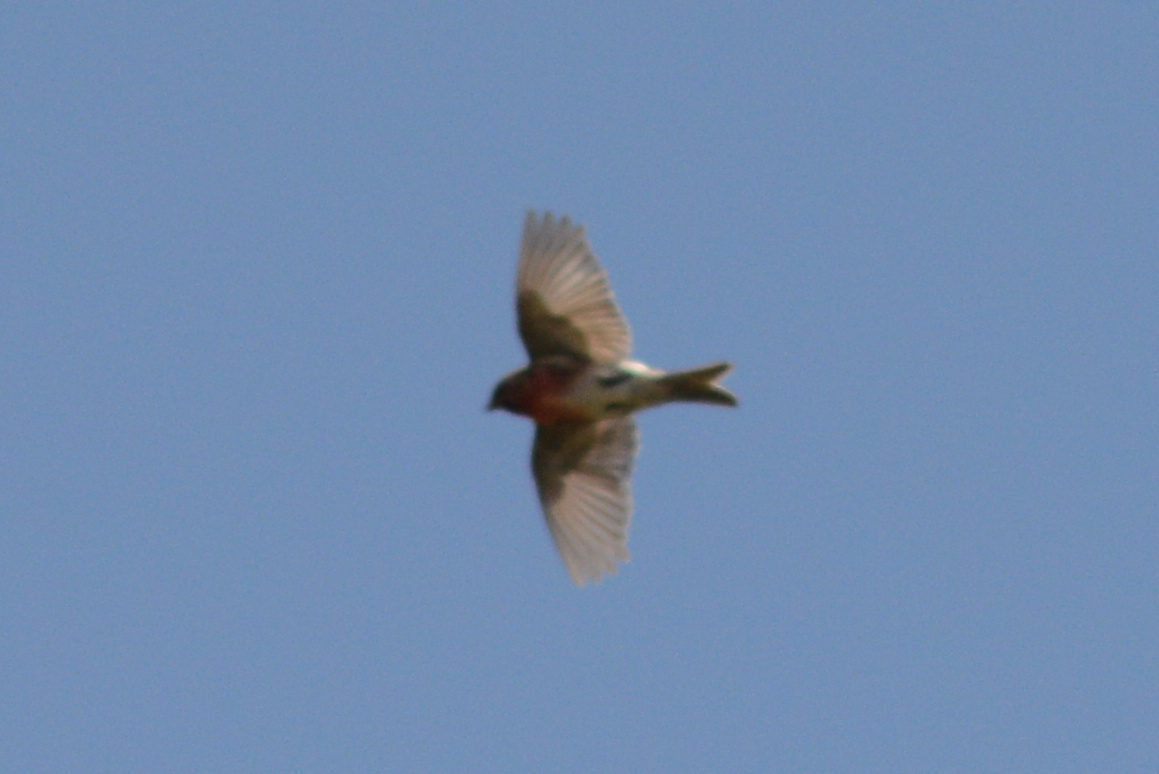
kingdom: Animalia
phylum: Chordata
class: Aves
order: Passeriformes
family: Fringillidae
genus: Acanthis
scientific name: Acanthis flammea
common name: Common redpoll
